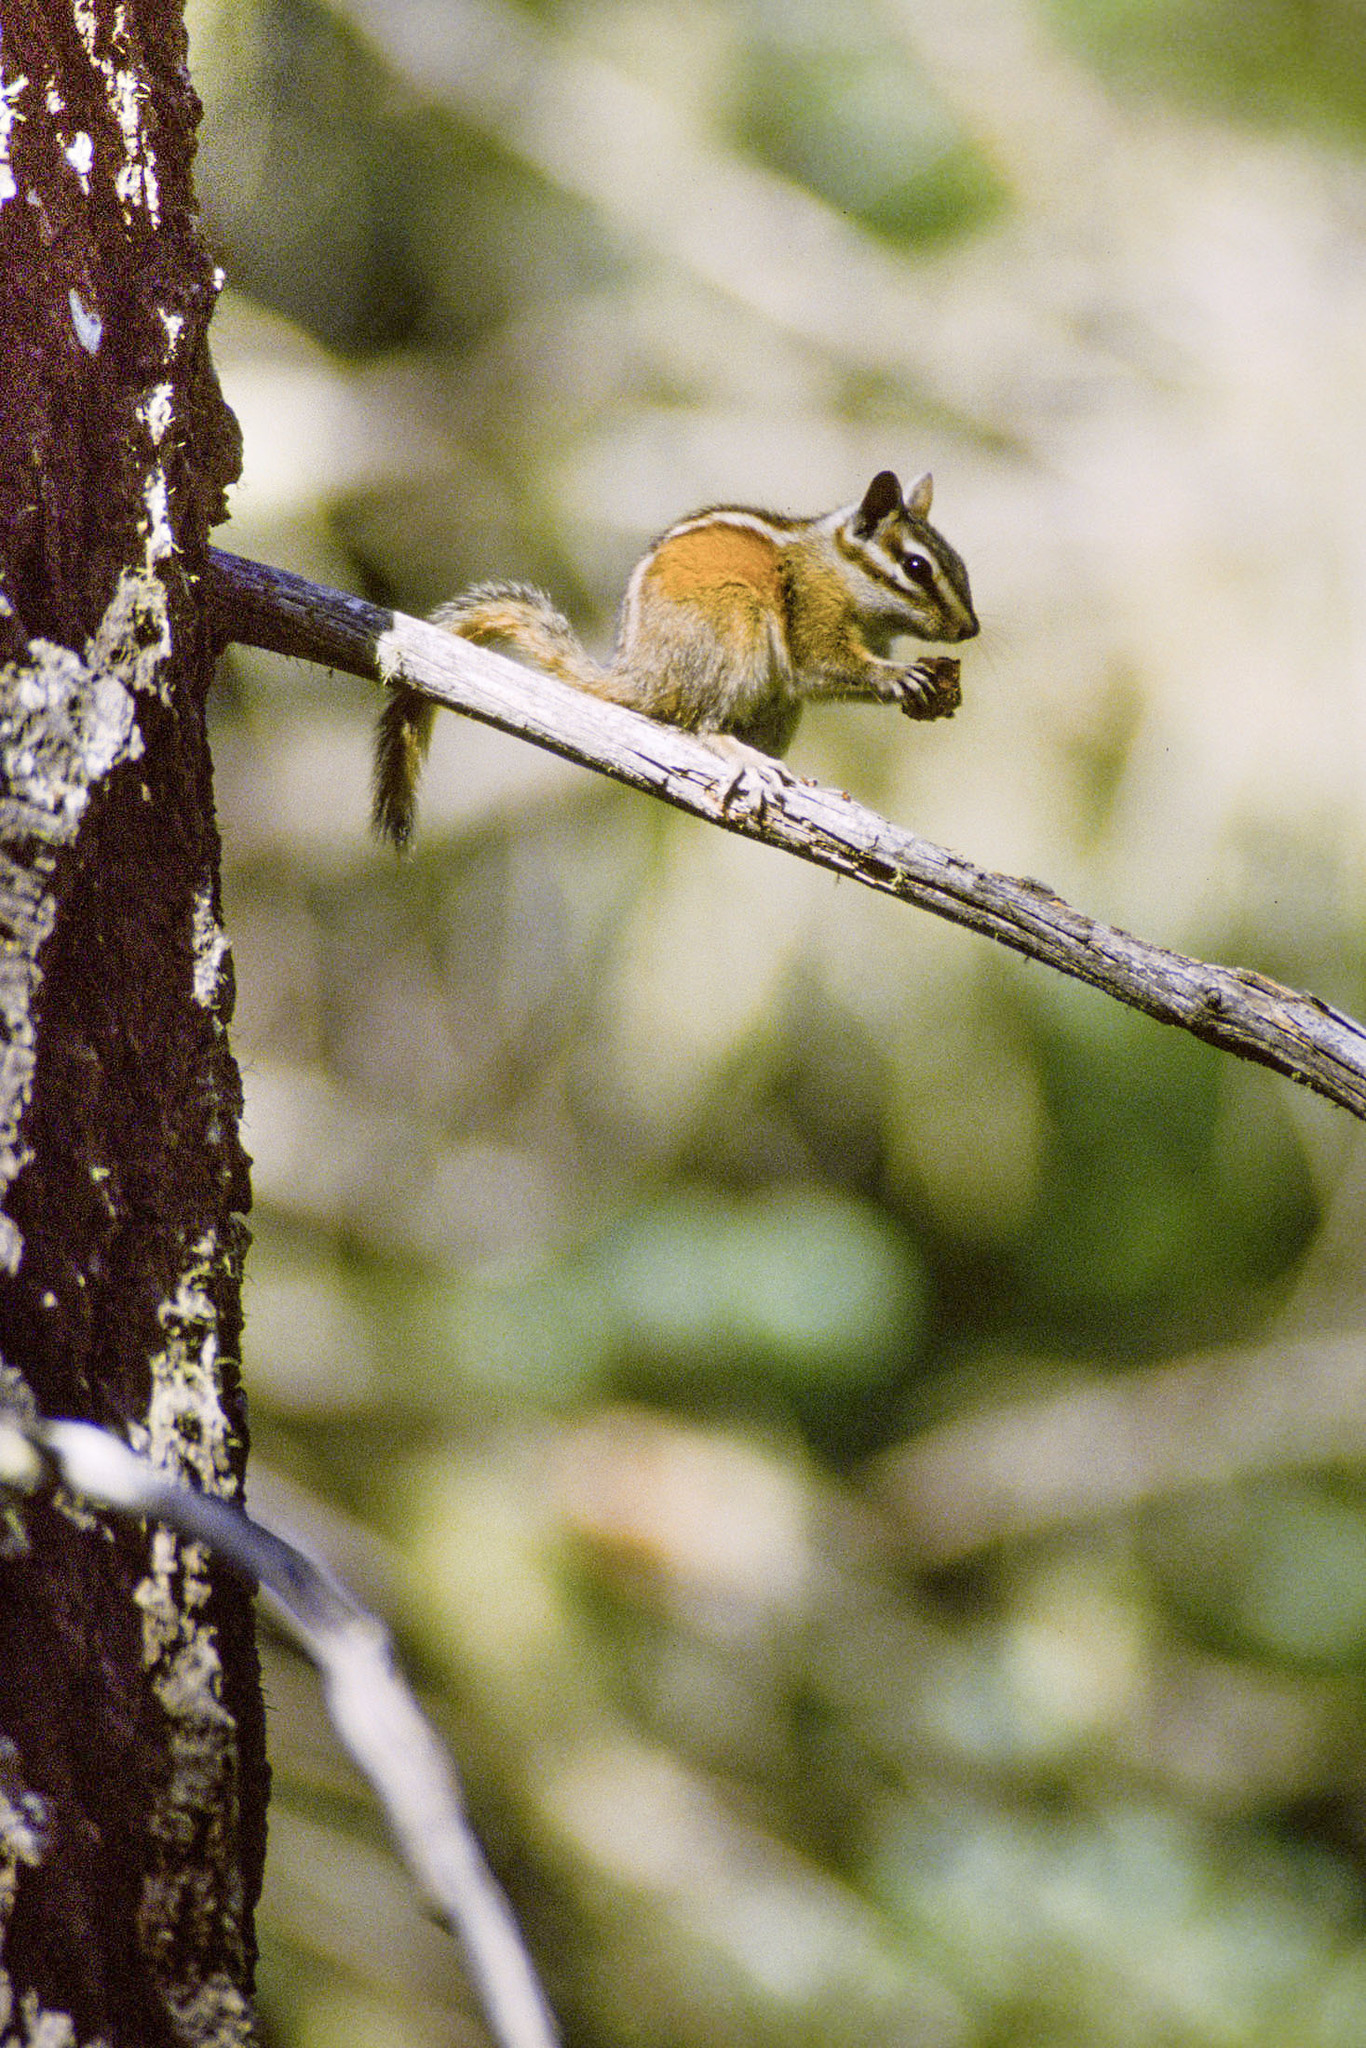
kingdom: Animalia
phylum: Chordata
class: Mammalia
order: Rodentia
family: Sciuridae
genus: Tamias
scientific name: Tamias cinereicollis
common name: Gray-collared chipmunk
